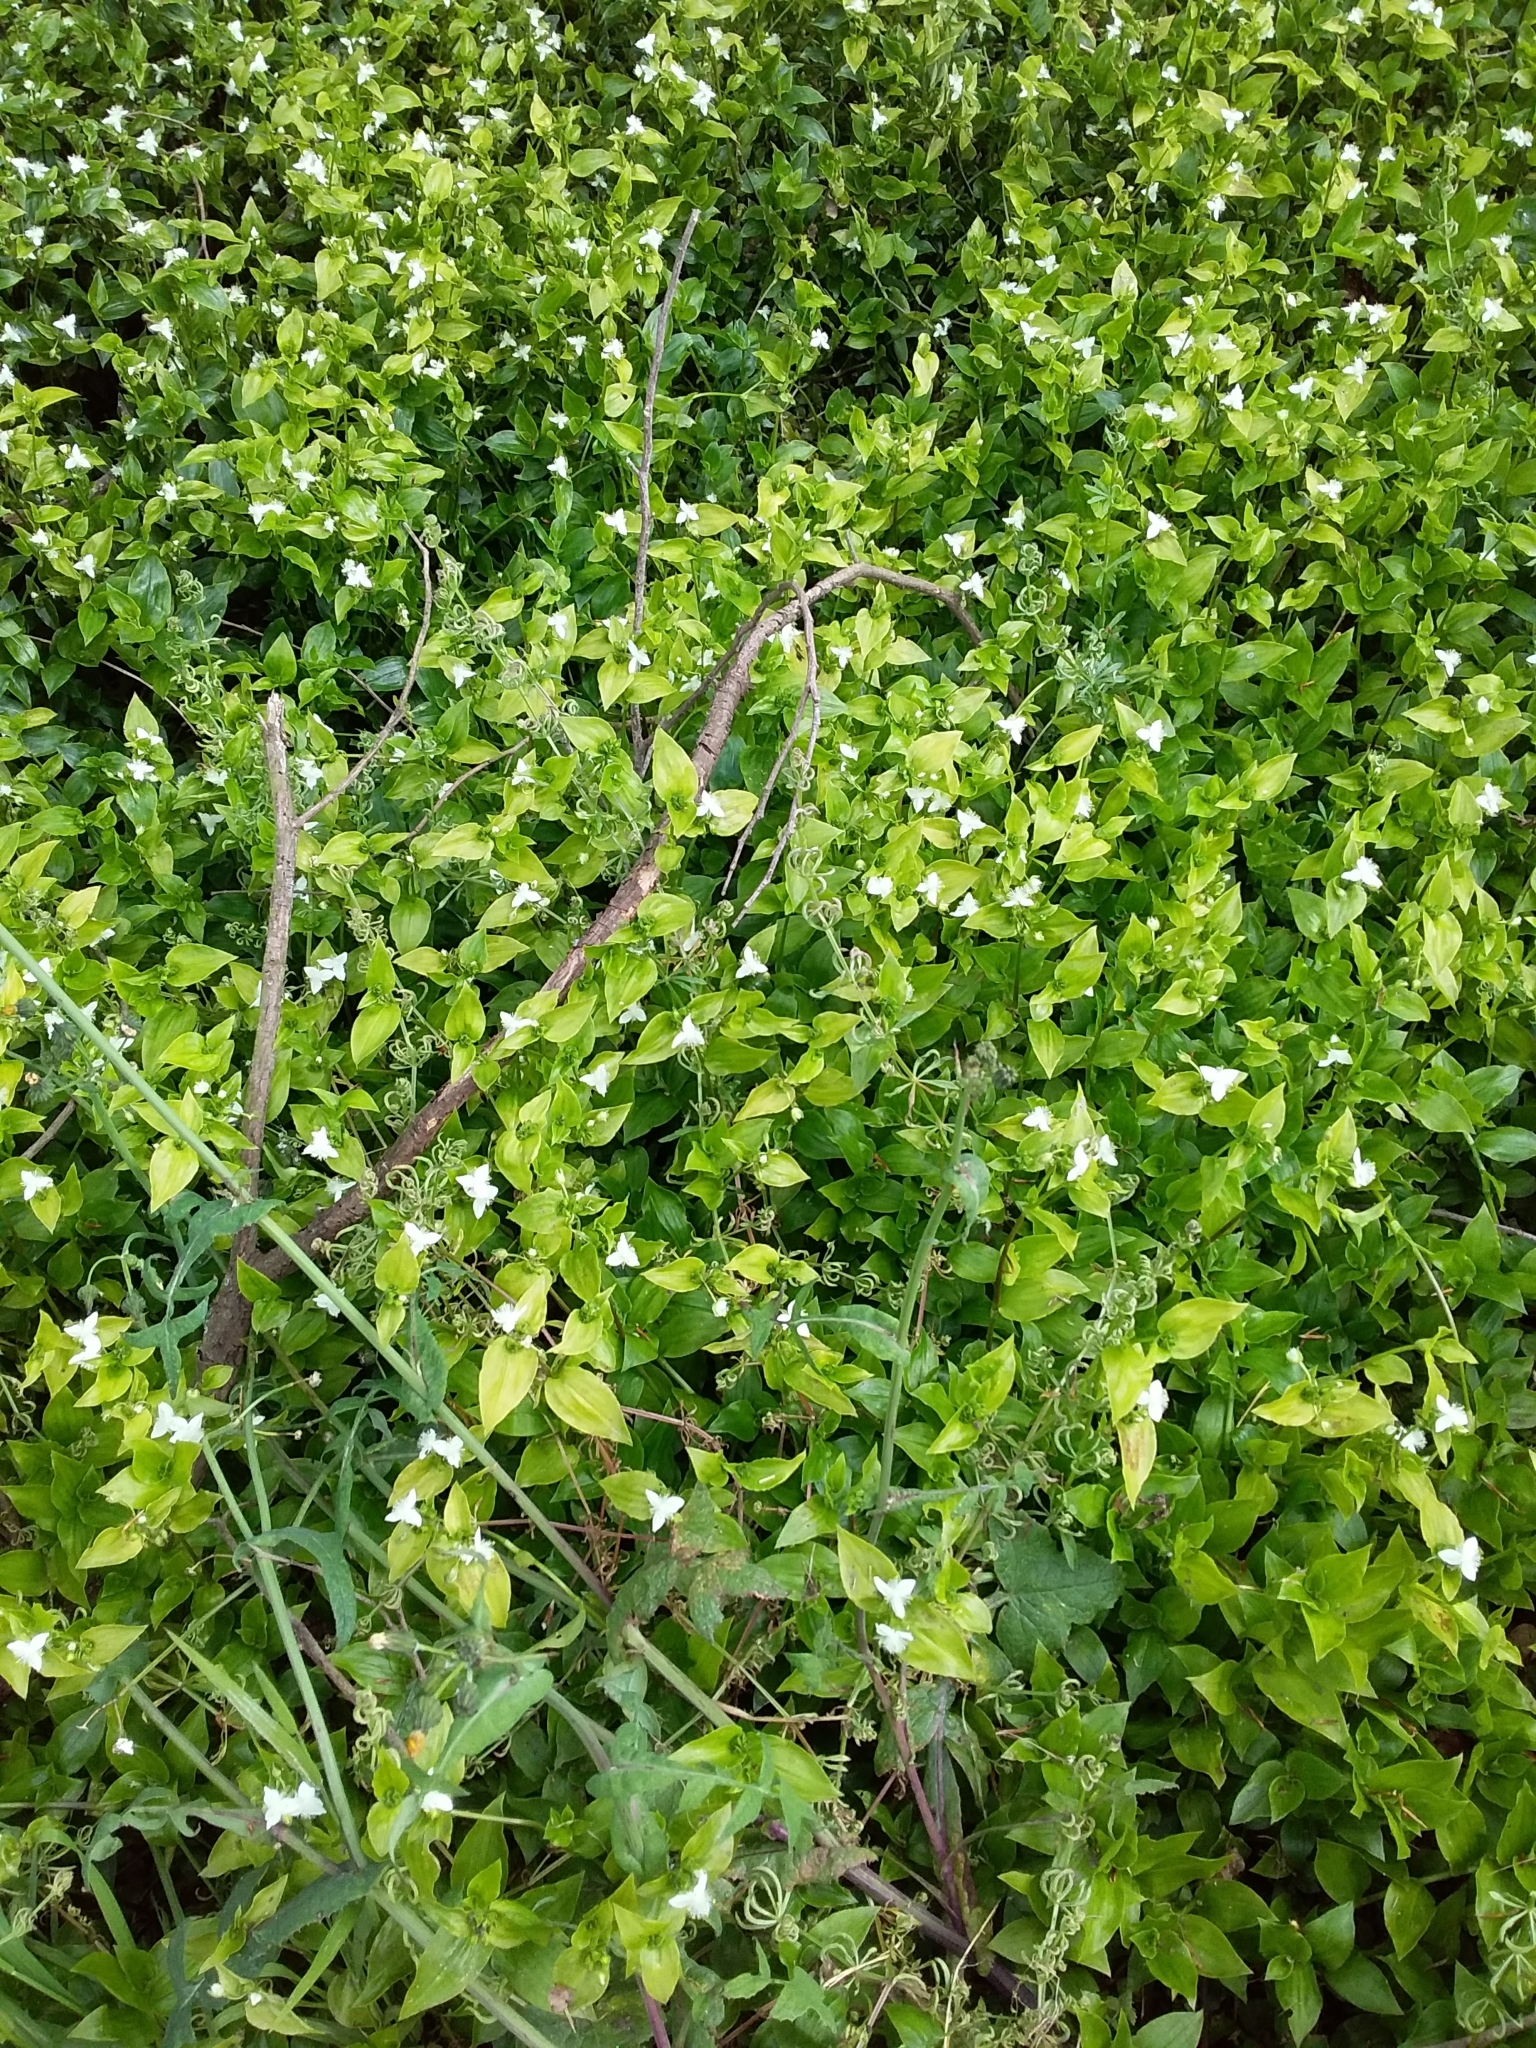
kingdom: Plantae
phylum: Tracheophyta
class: Liliopsida
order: Commelinales
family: Commelinaceae
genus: Tradescantia
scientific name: Tradescantia fluminensis
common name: Wandering-jew
